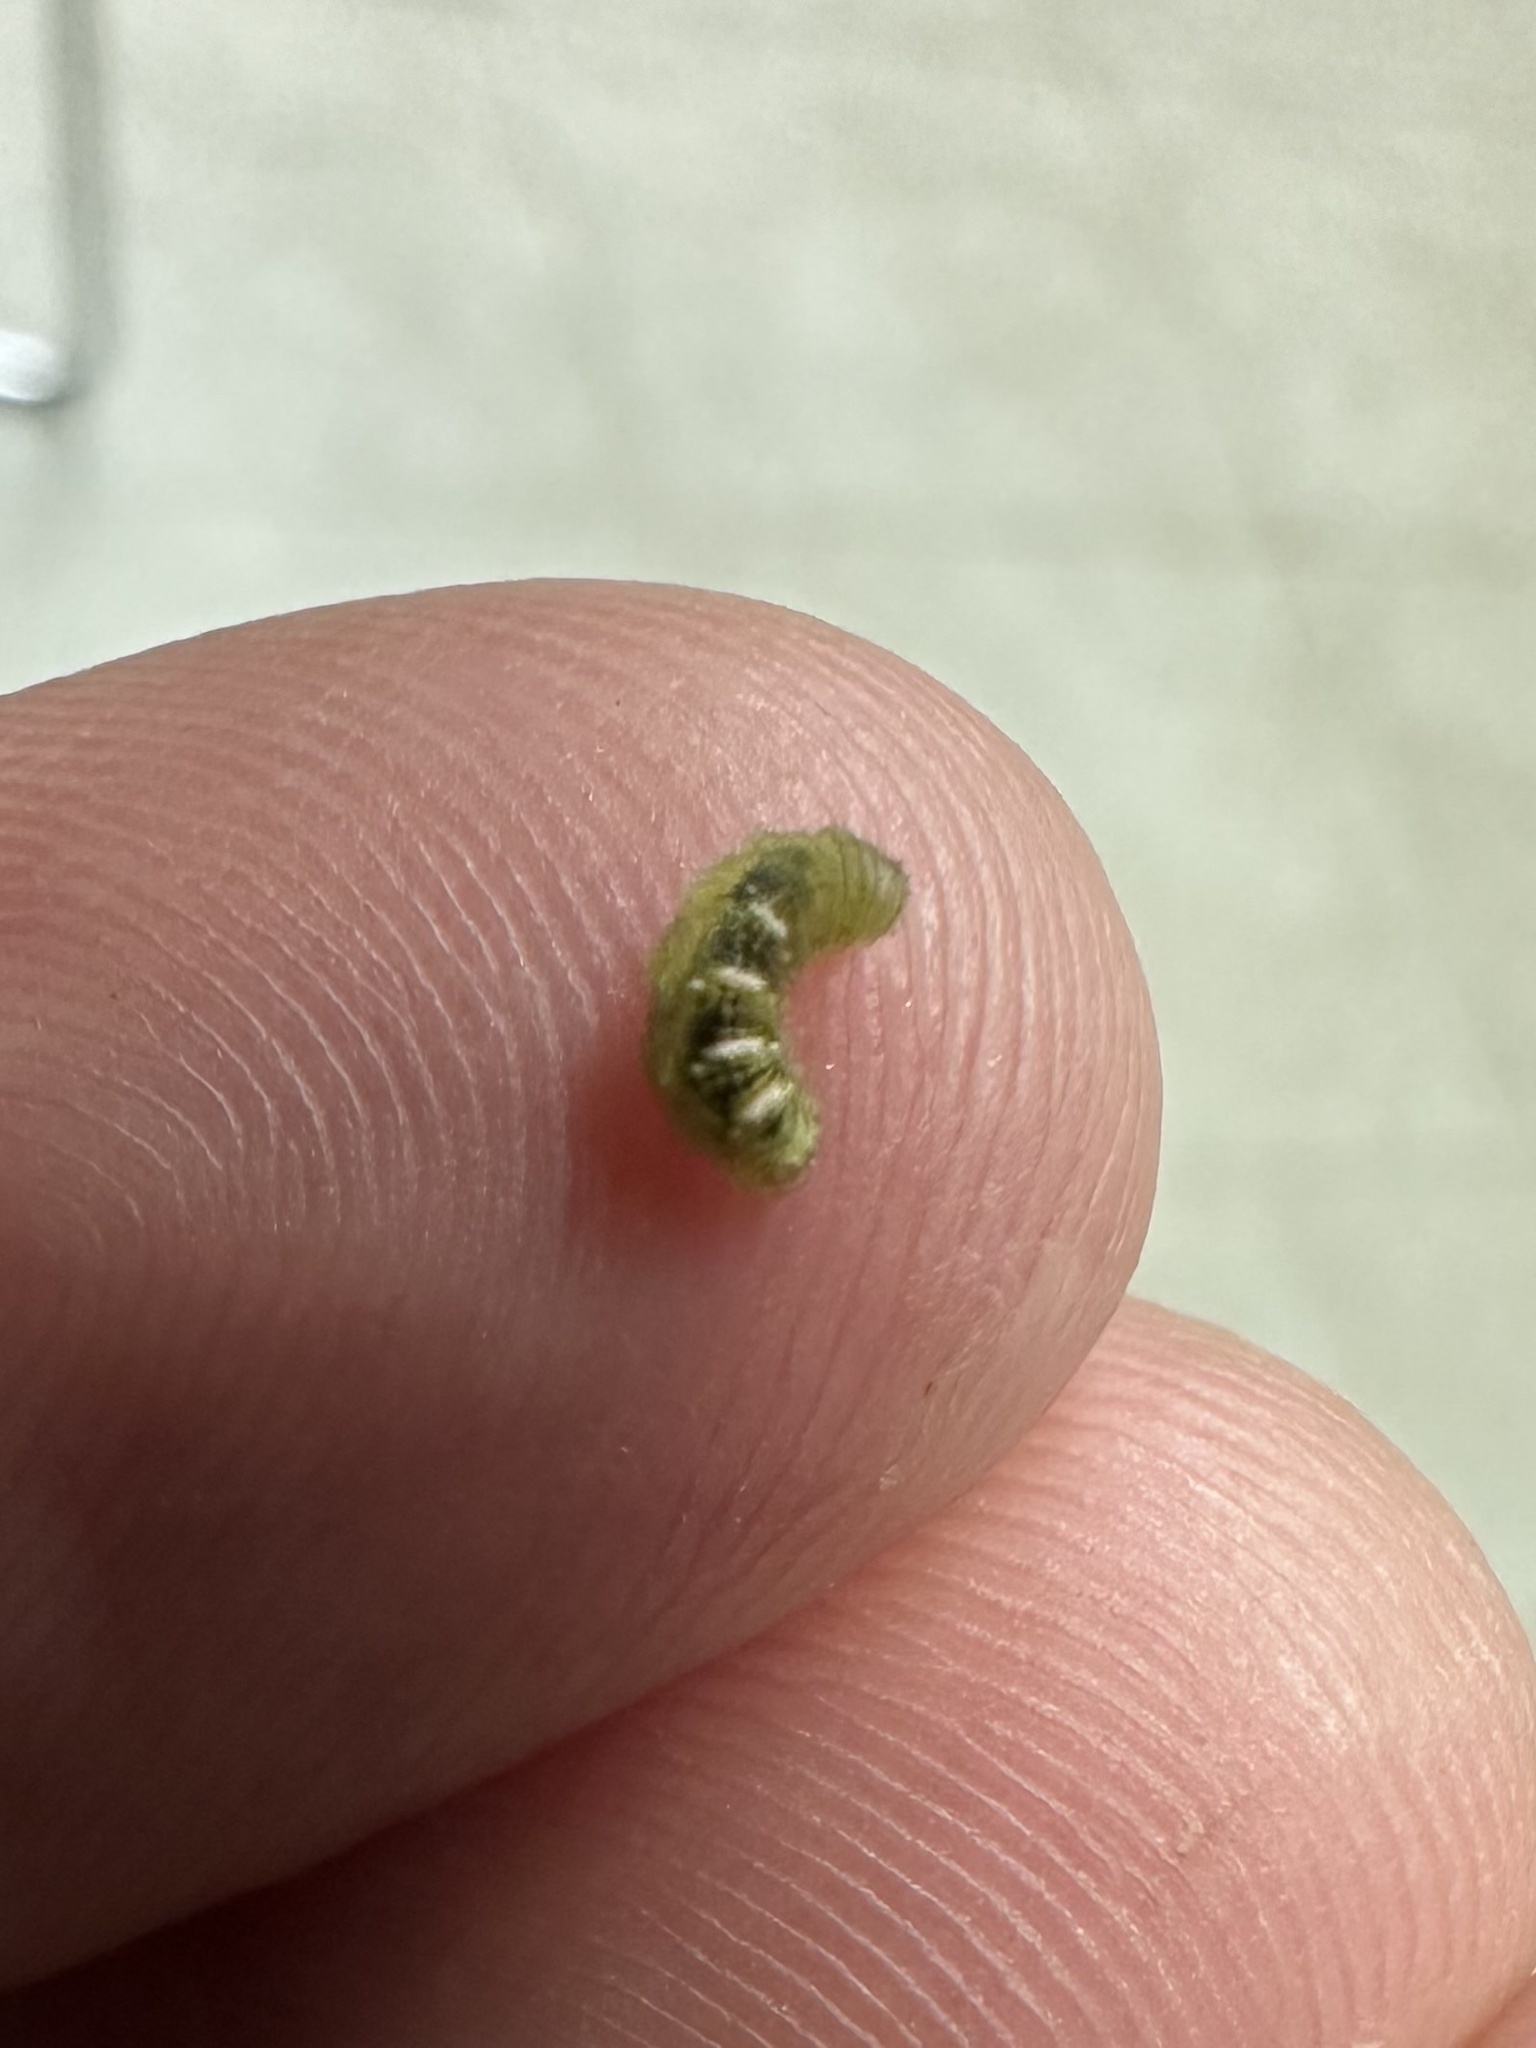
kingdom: Animalia
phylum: Arthropoda
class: Insecta
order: Diptera
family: Syrphidae
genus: Eupeodes
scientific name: Eupeodes pomus
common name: Short-tailed aphideater
